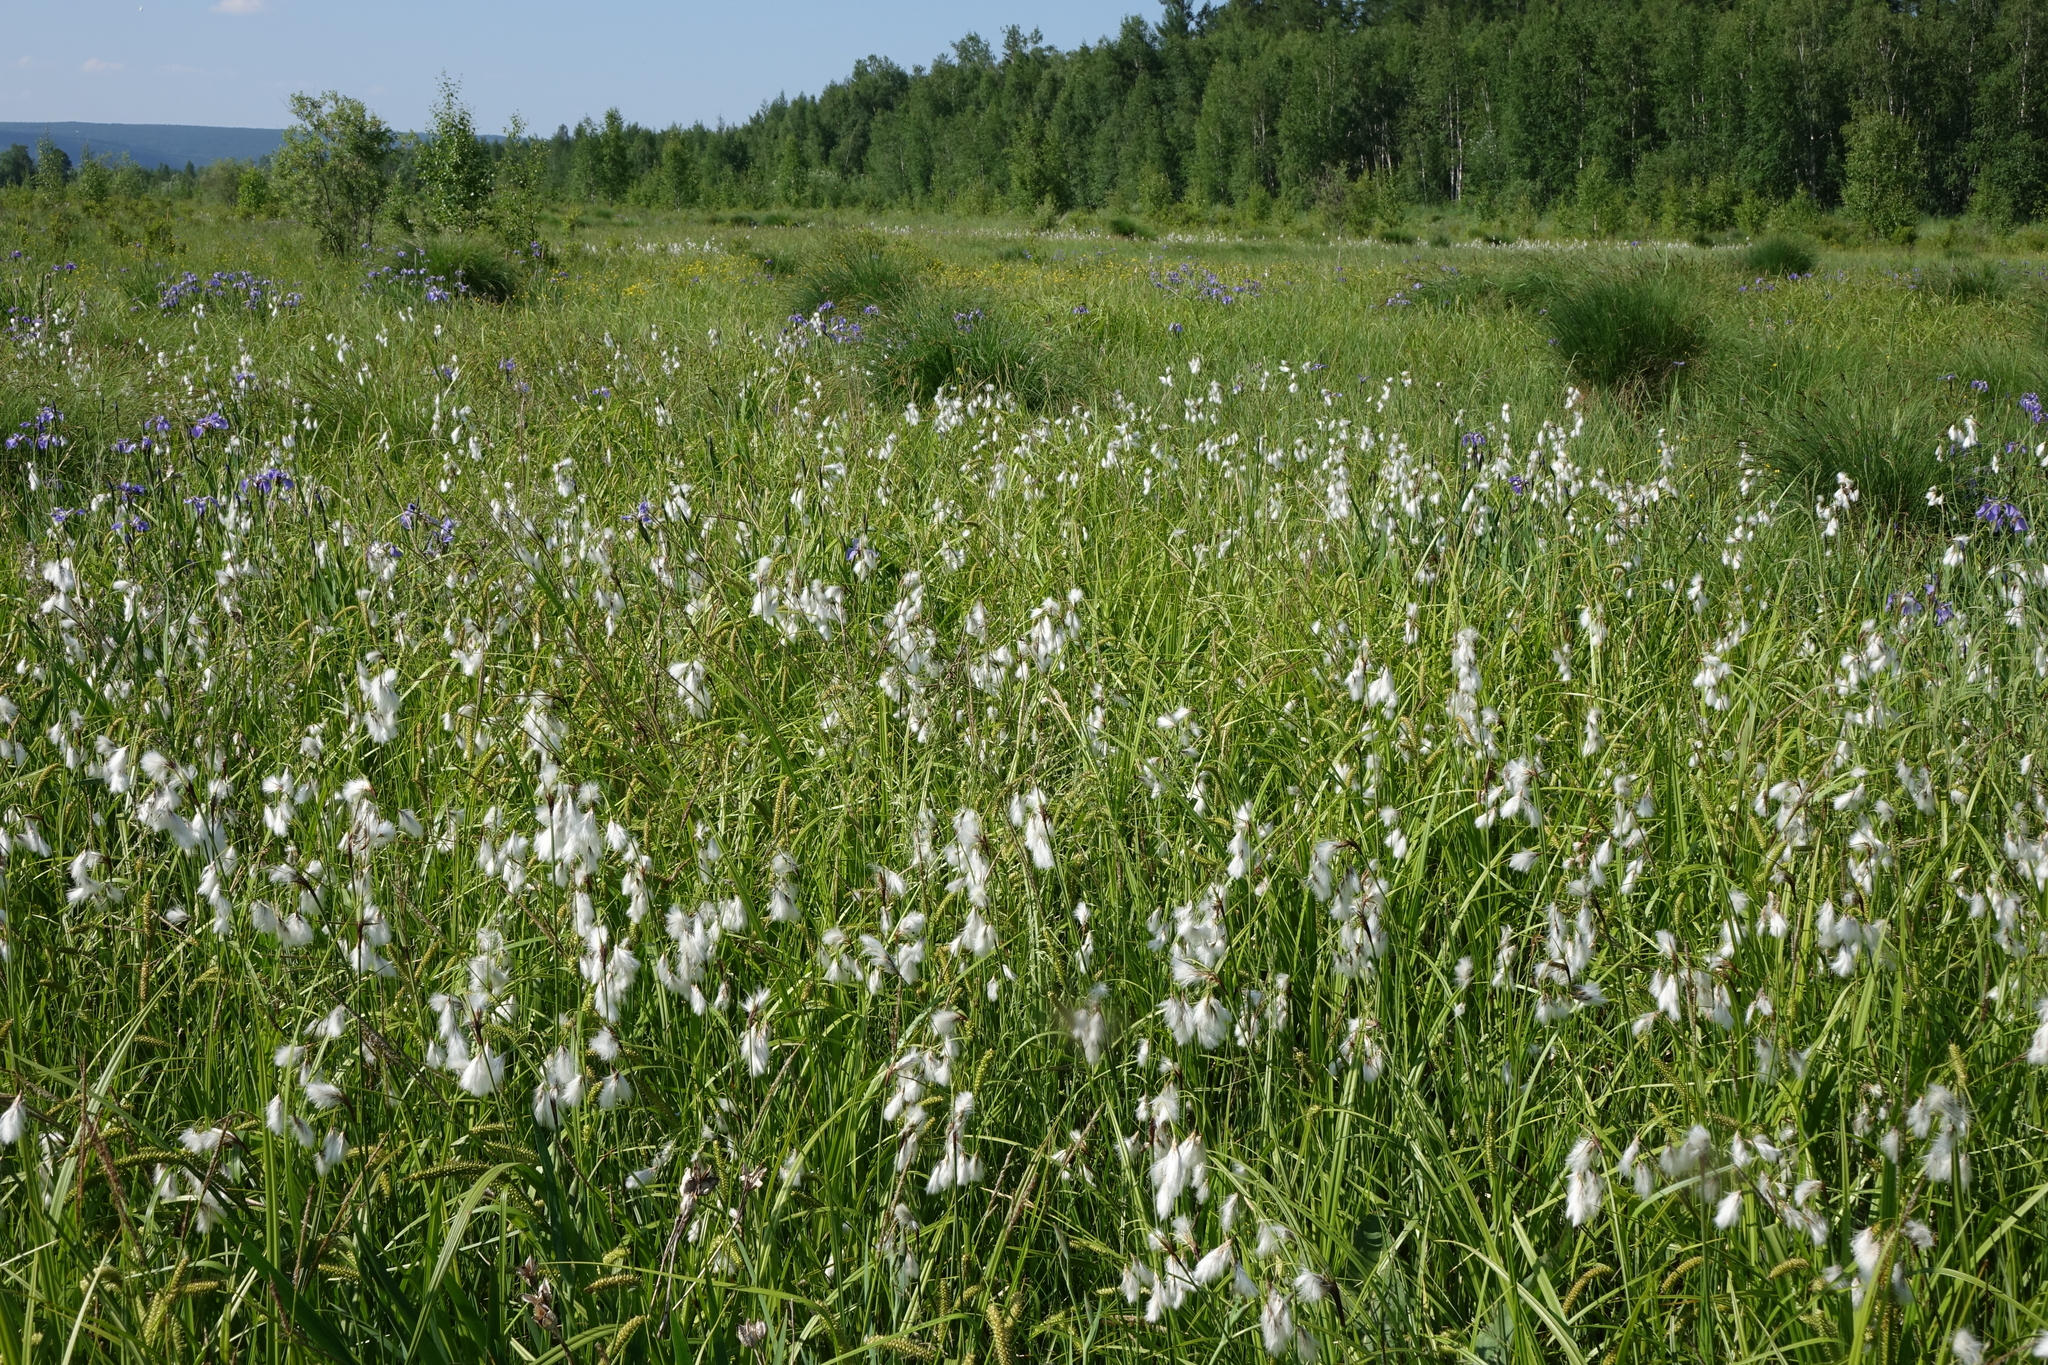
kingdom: Plantae
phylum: Tracheophyta
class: Liliopsida
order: Poales
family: Cyperaceae
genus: Eriophorum
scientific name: Eriophorum angustifolium
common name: Common cottongrass
